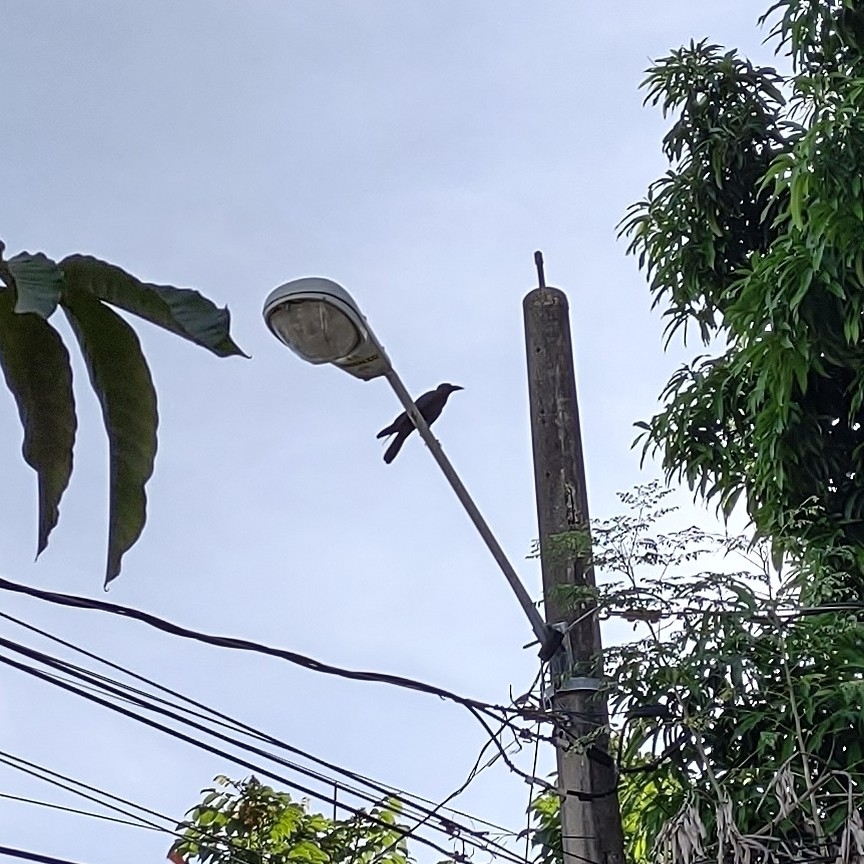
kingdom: Animalia
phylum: Chordata
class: Aves
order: Passeriformes
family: Corvidae
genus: Corvus
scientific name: Corvus macrorhynchos
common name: Large-billed crow
